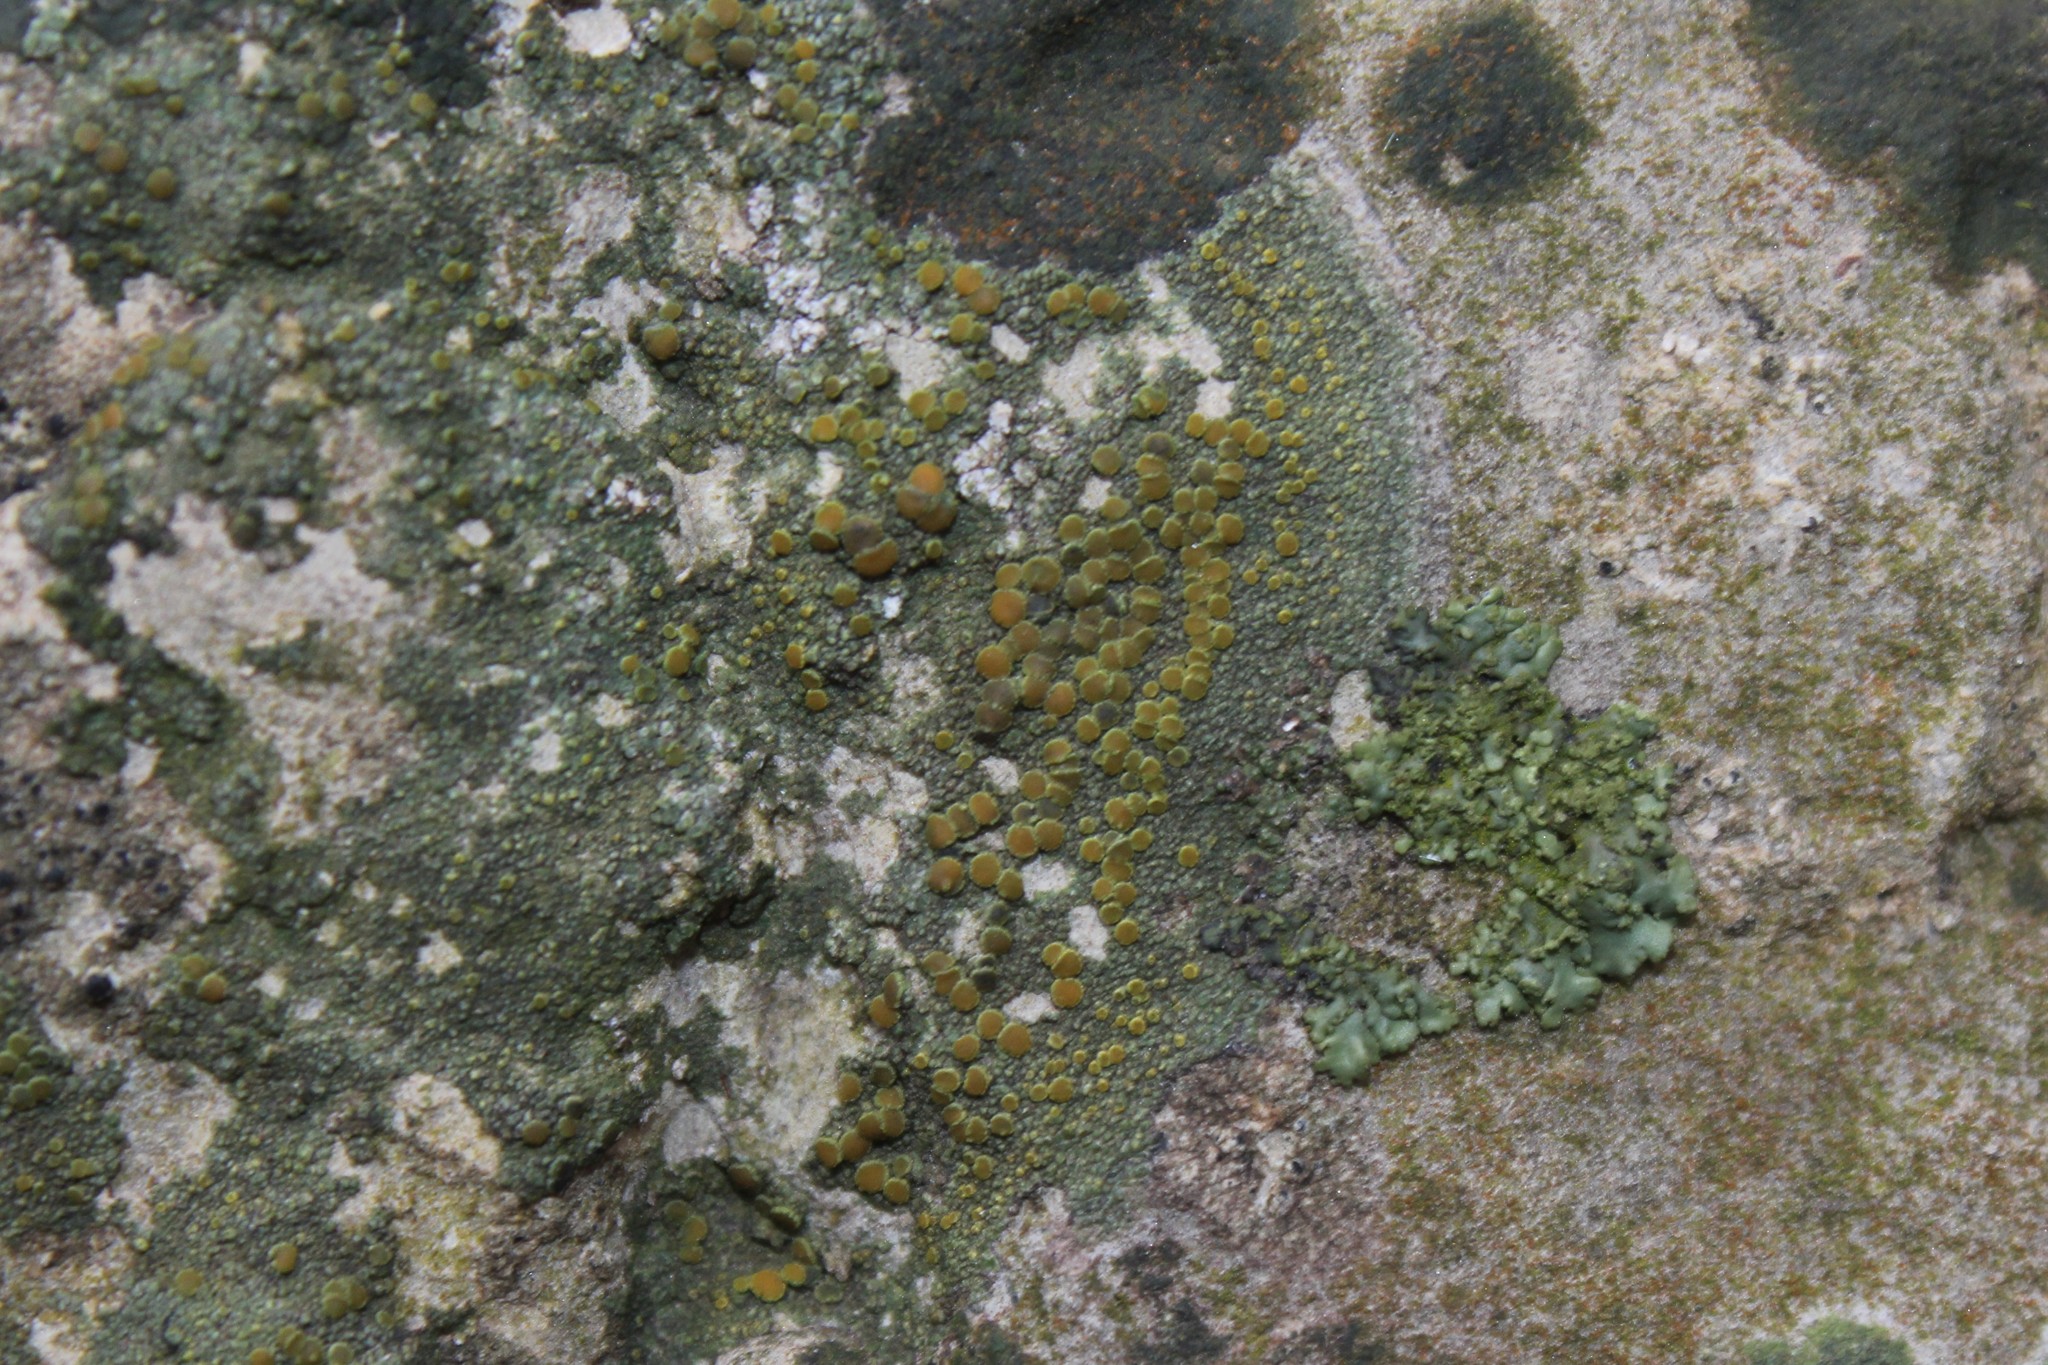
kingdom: Fungi
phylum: Ascomycota
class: Lecanoromycetes
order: Teloschistales
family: Teloschistaceae
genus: Gyalolechia
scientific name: Gyalolechia flavovirescens
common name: Sulphur firedot
